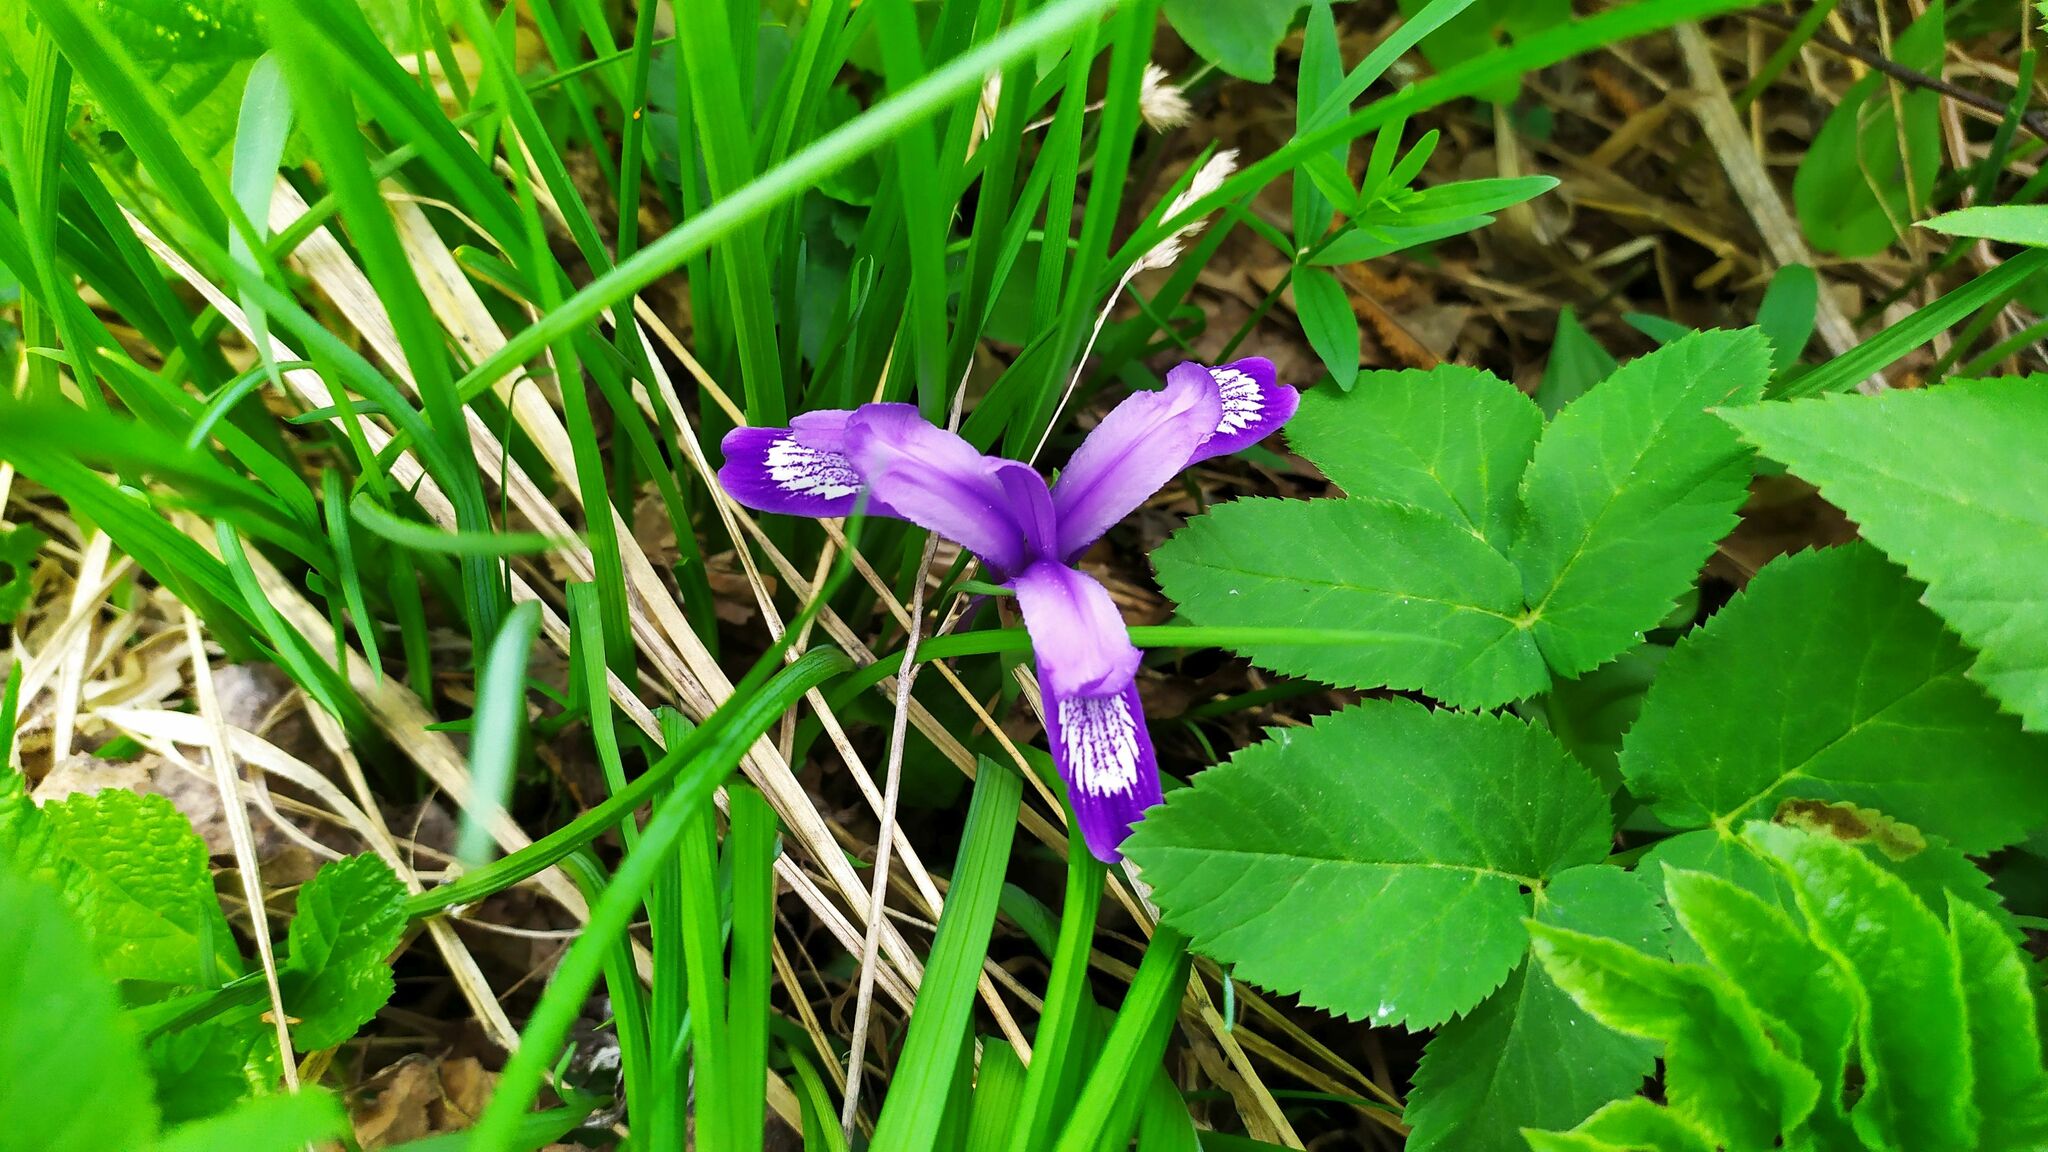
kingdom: Plantae
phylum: Tracheophyta
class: Liliopsida
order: Asparagales
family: Iridaceae
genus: Iris
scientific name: Iris ruthenica
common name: Purple-bract iris
